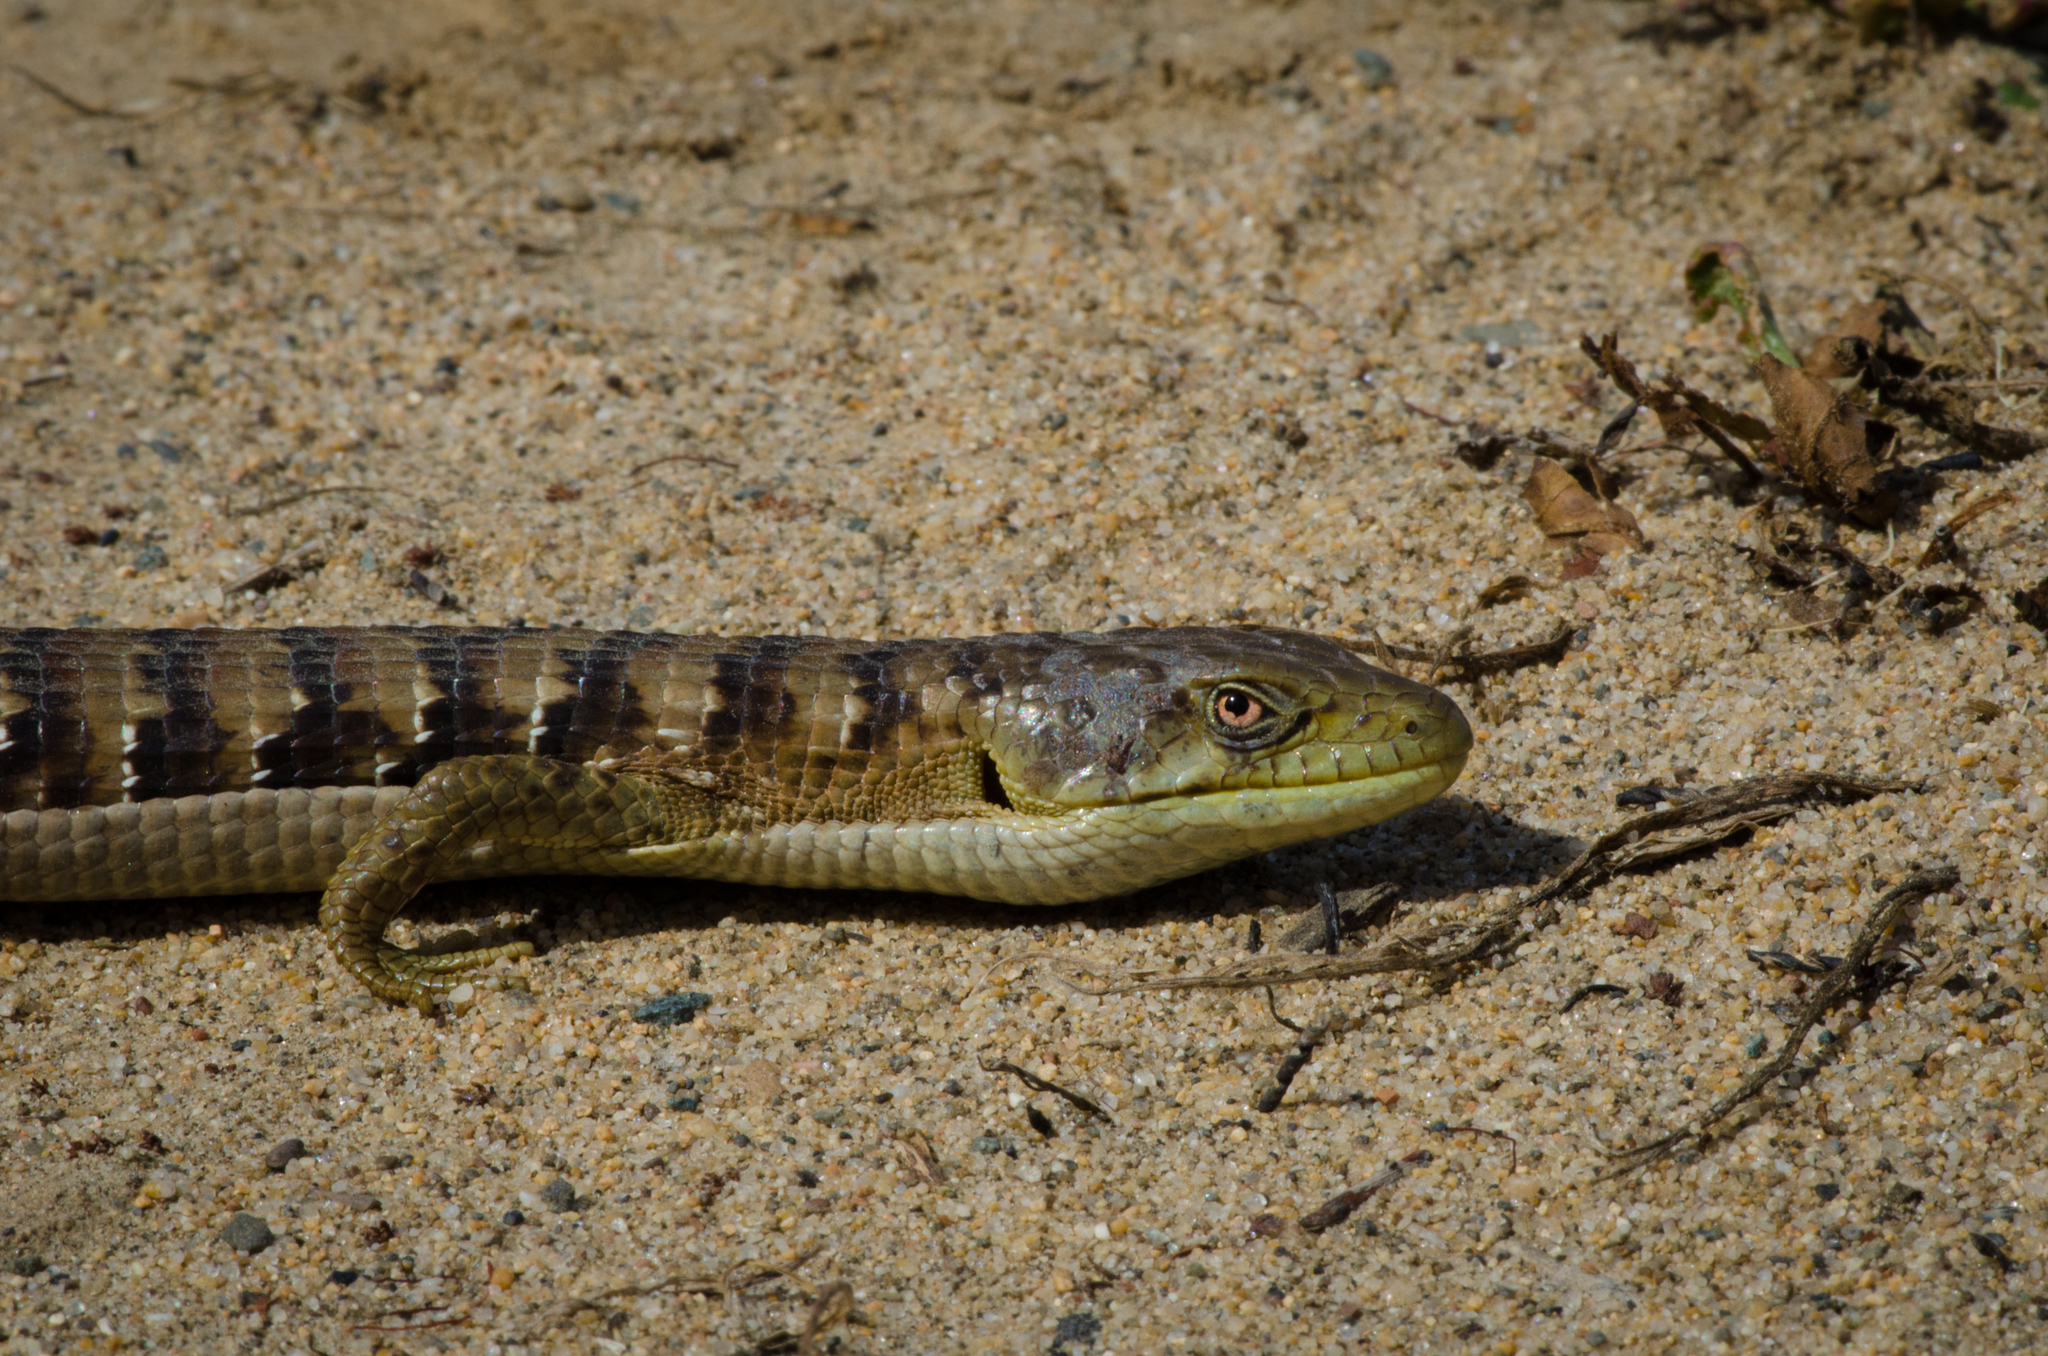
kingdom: Animalia
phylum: Chordata
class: Squamata
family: Anguidae
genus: Elgaria
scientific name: Elgaria multicarinata
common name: Southern alligator lizard
